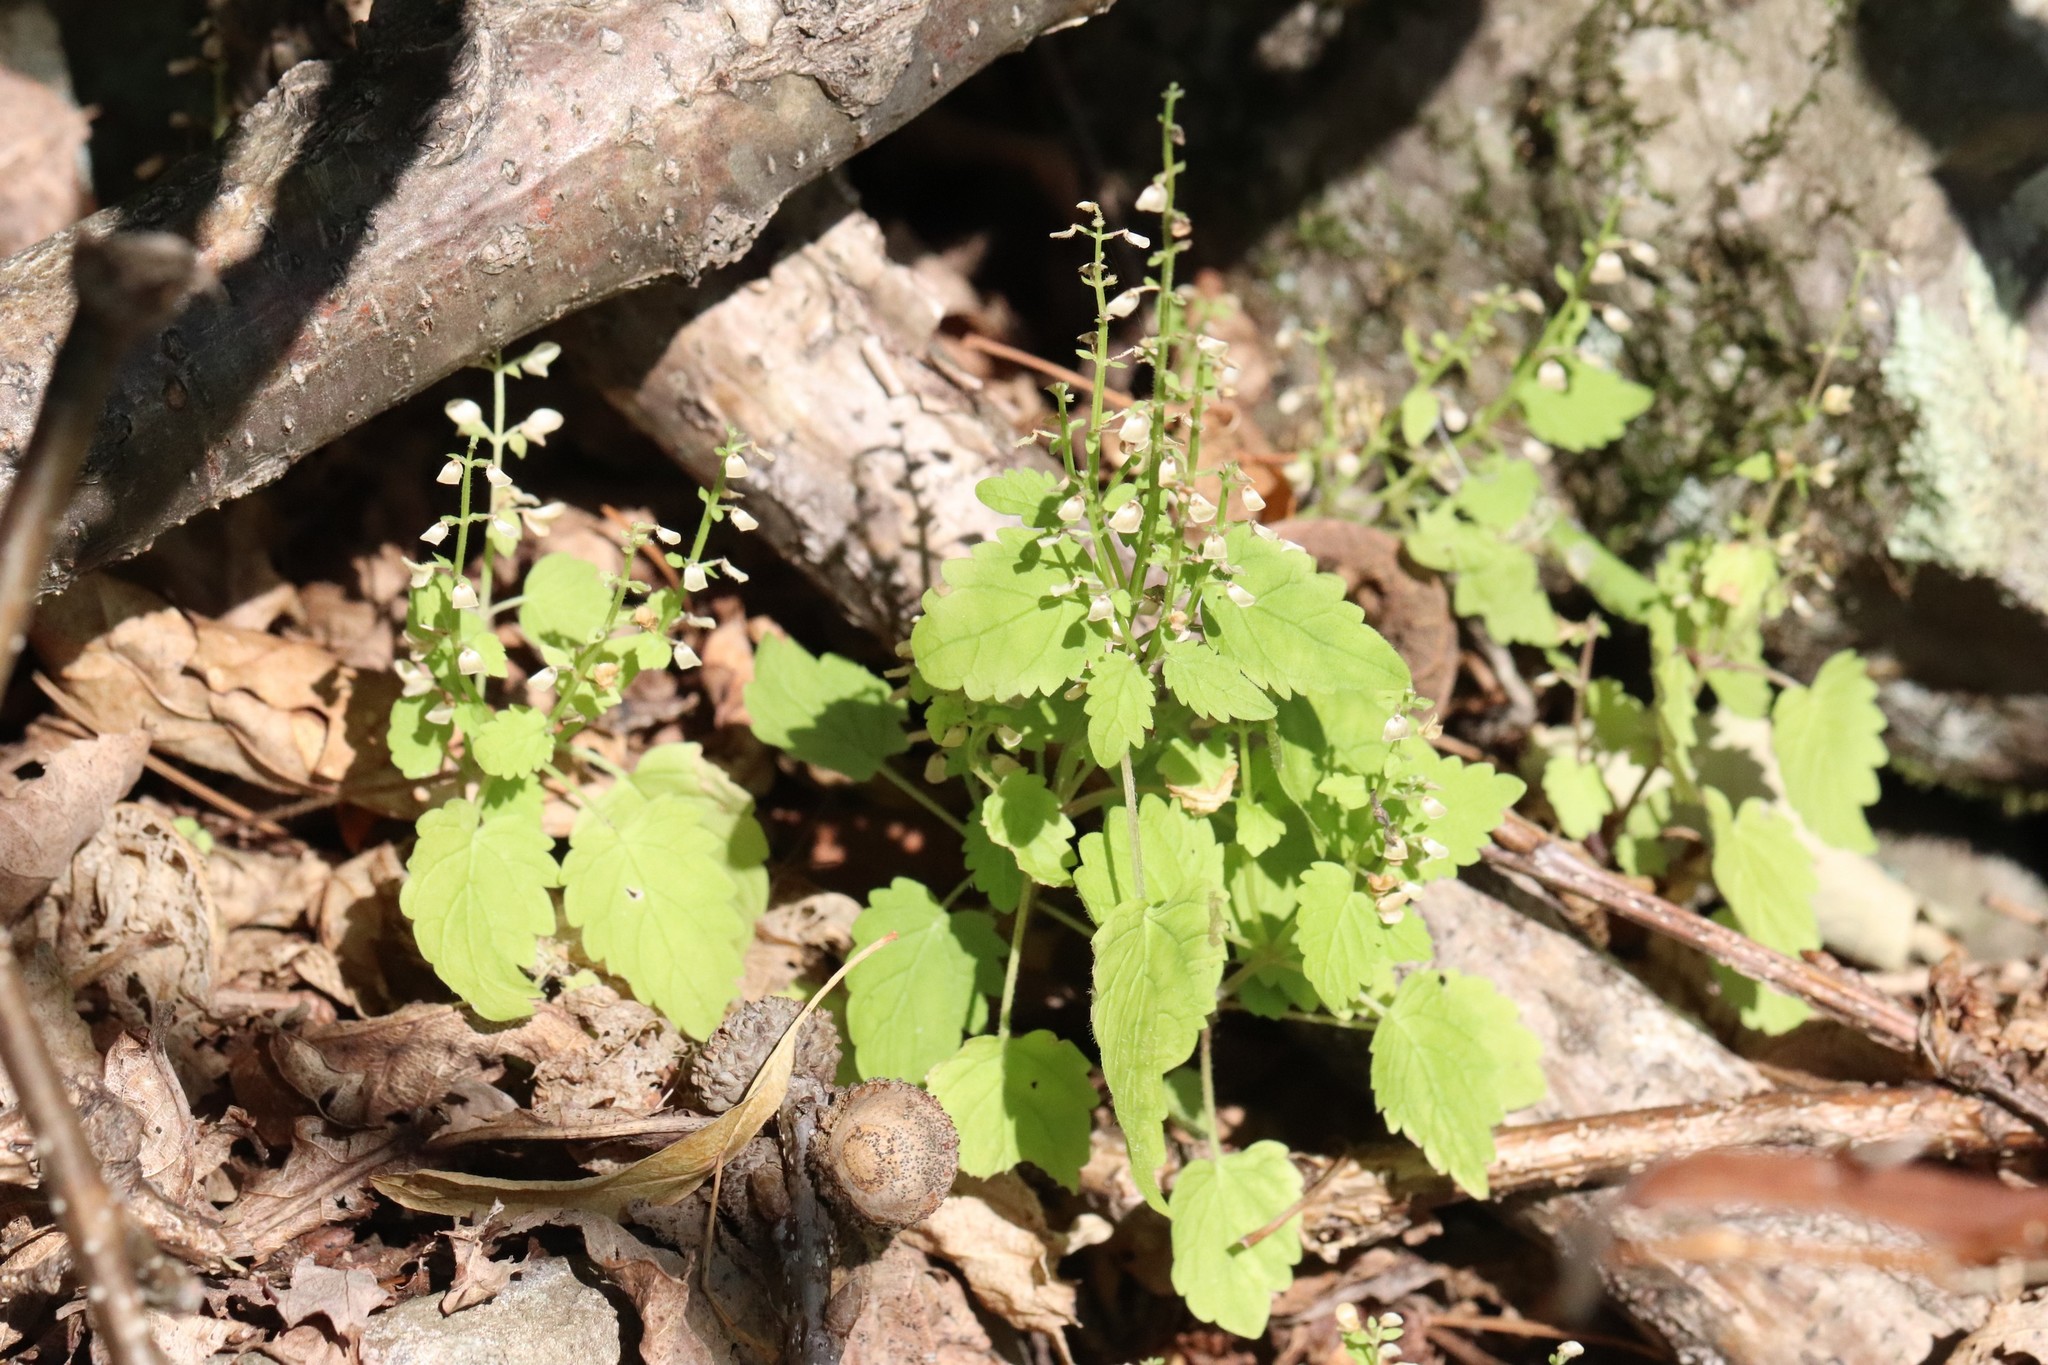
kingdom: Plantae
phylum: Tracheophyta
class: Magnoliopsida
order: Lamiales
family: Lamiaceae
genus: Scutellaria
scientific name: Scutellaria pekinensis
